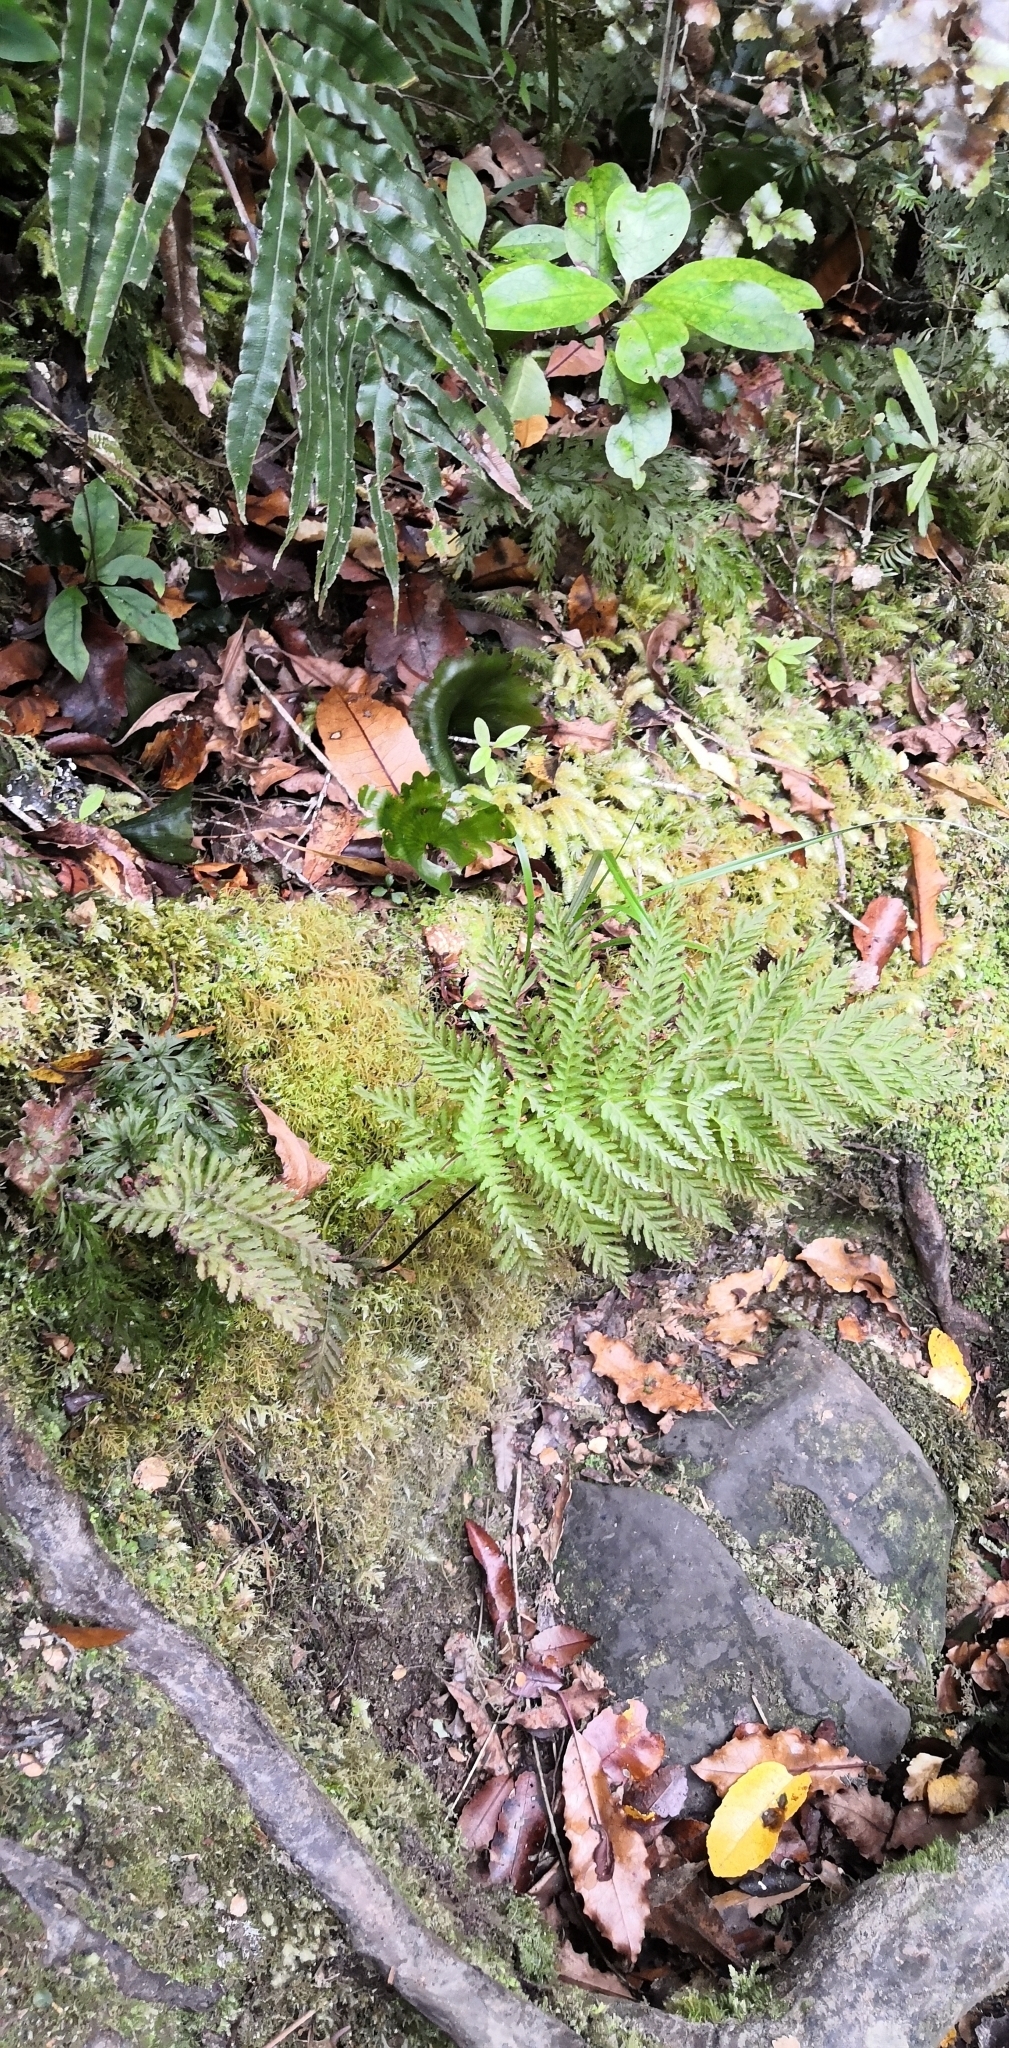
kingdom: Plantae
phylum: Tracheophyta
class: Polypodiopsida
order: Osmundales
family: Osmundaceae
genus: Leptopteris
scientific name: Leptopteris hymenophylloides
